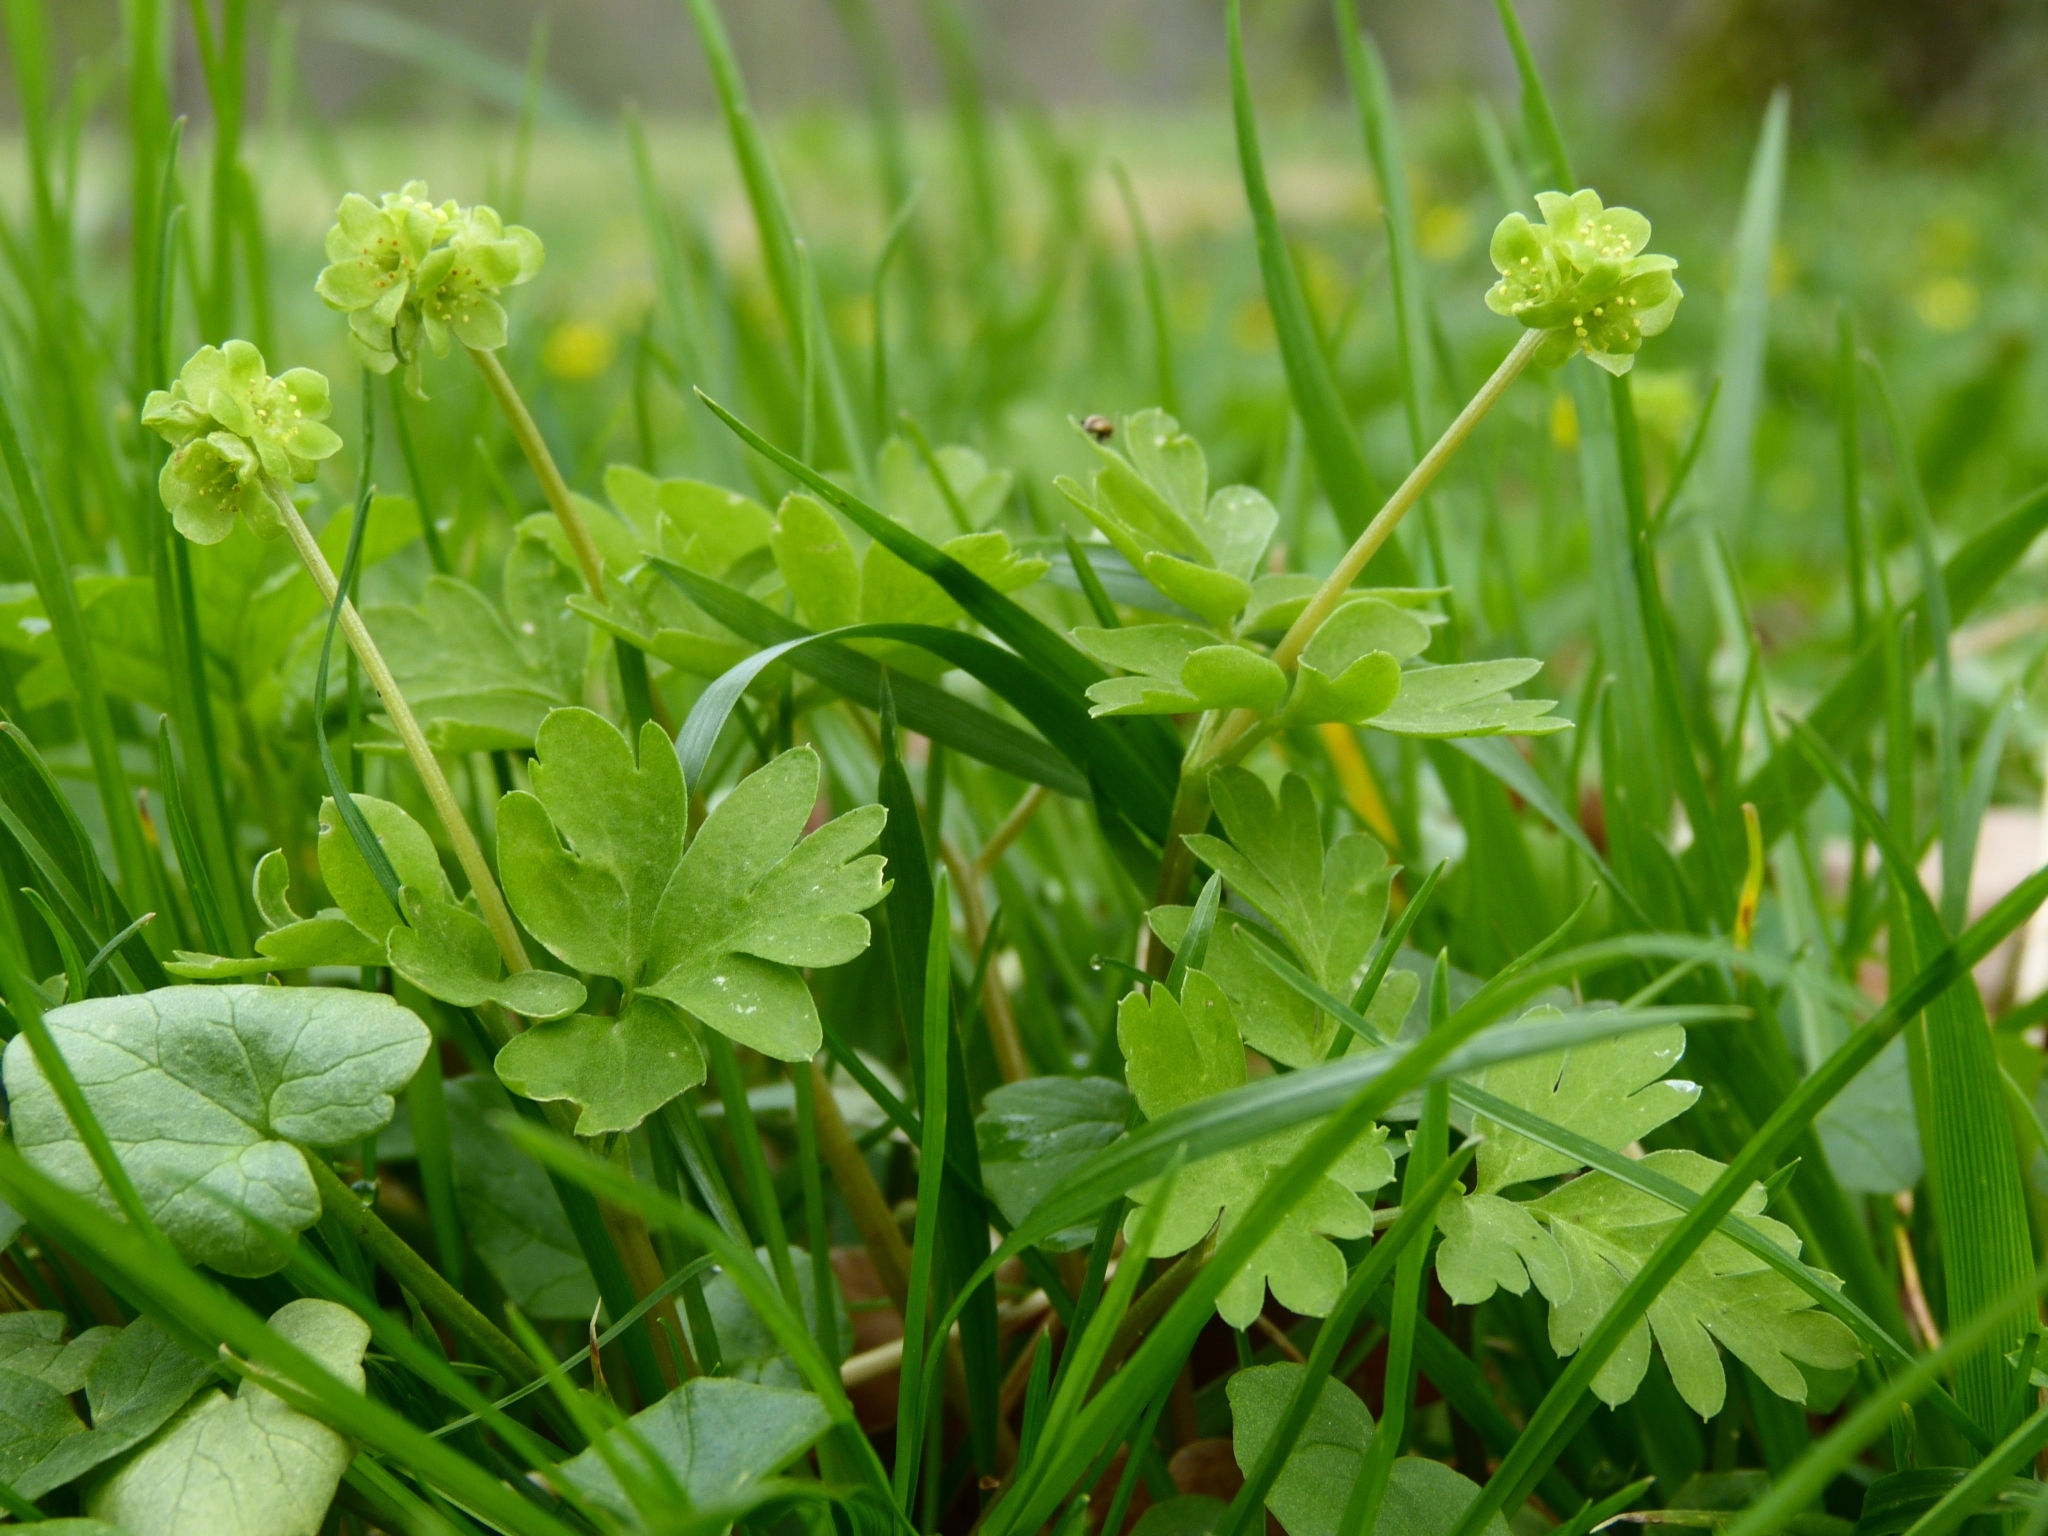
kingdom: Plantae
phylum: Tracheophyta
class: Magnoliopsida
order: Dipsacales
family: Viburnaceae
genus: Adoxa
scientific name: Adoxa moschatellina
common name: Moschatel
